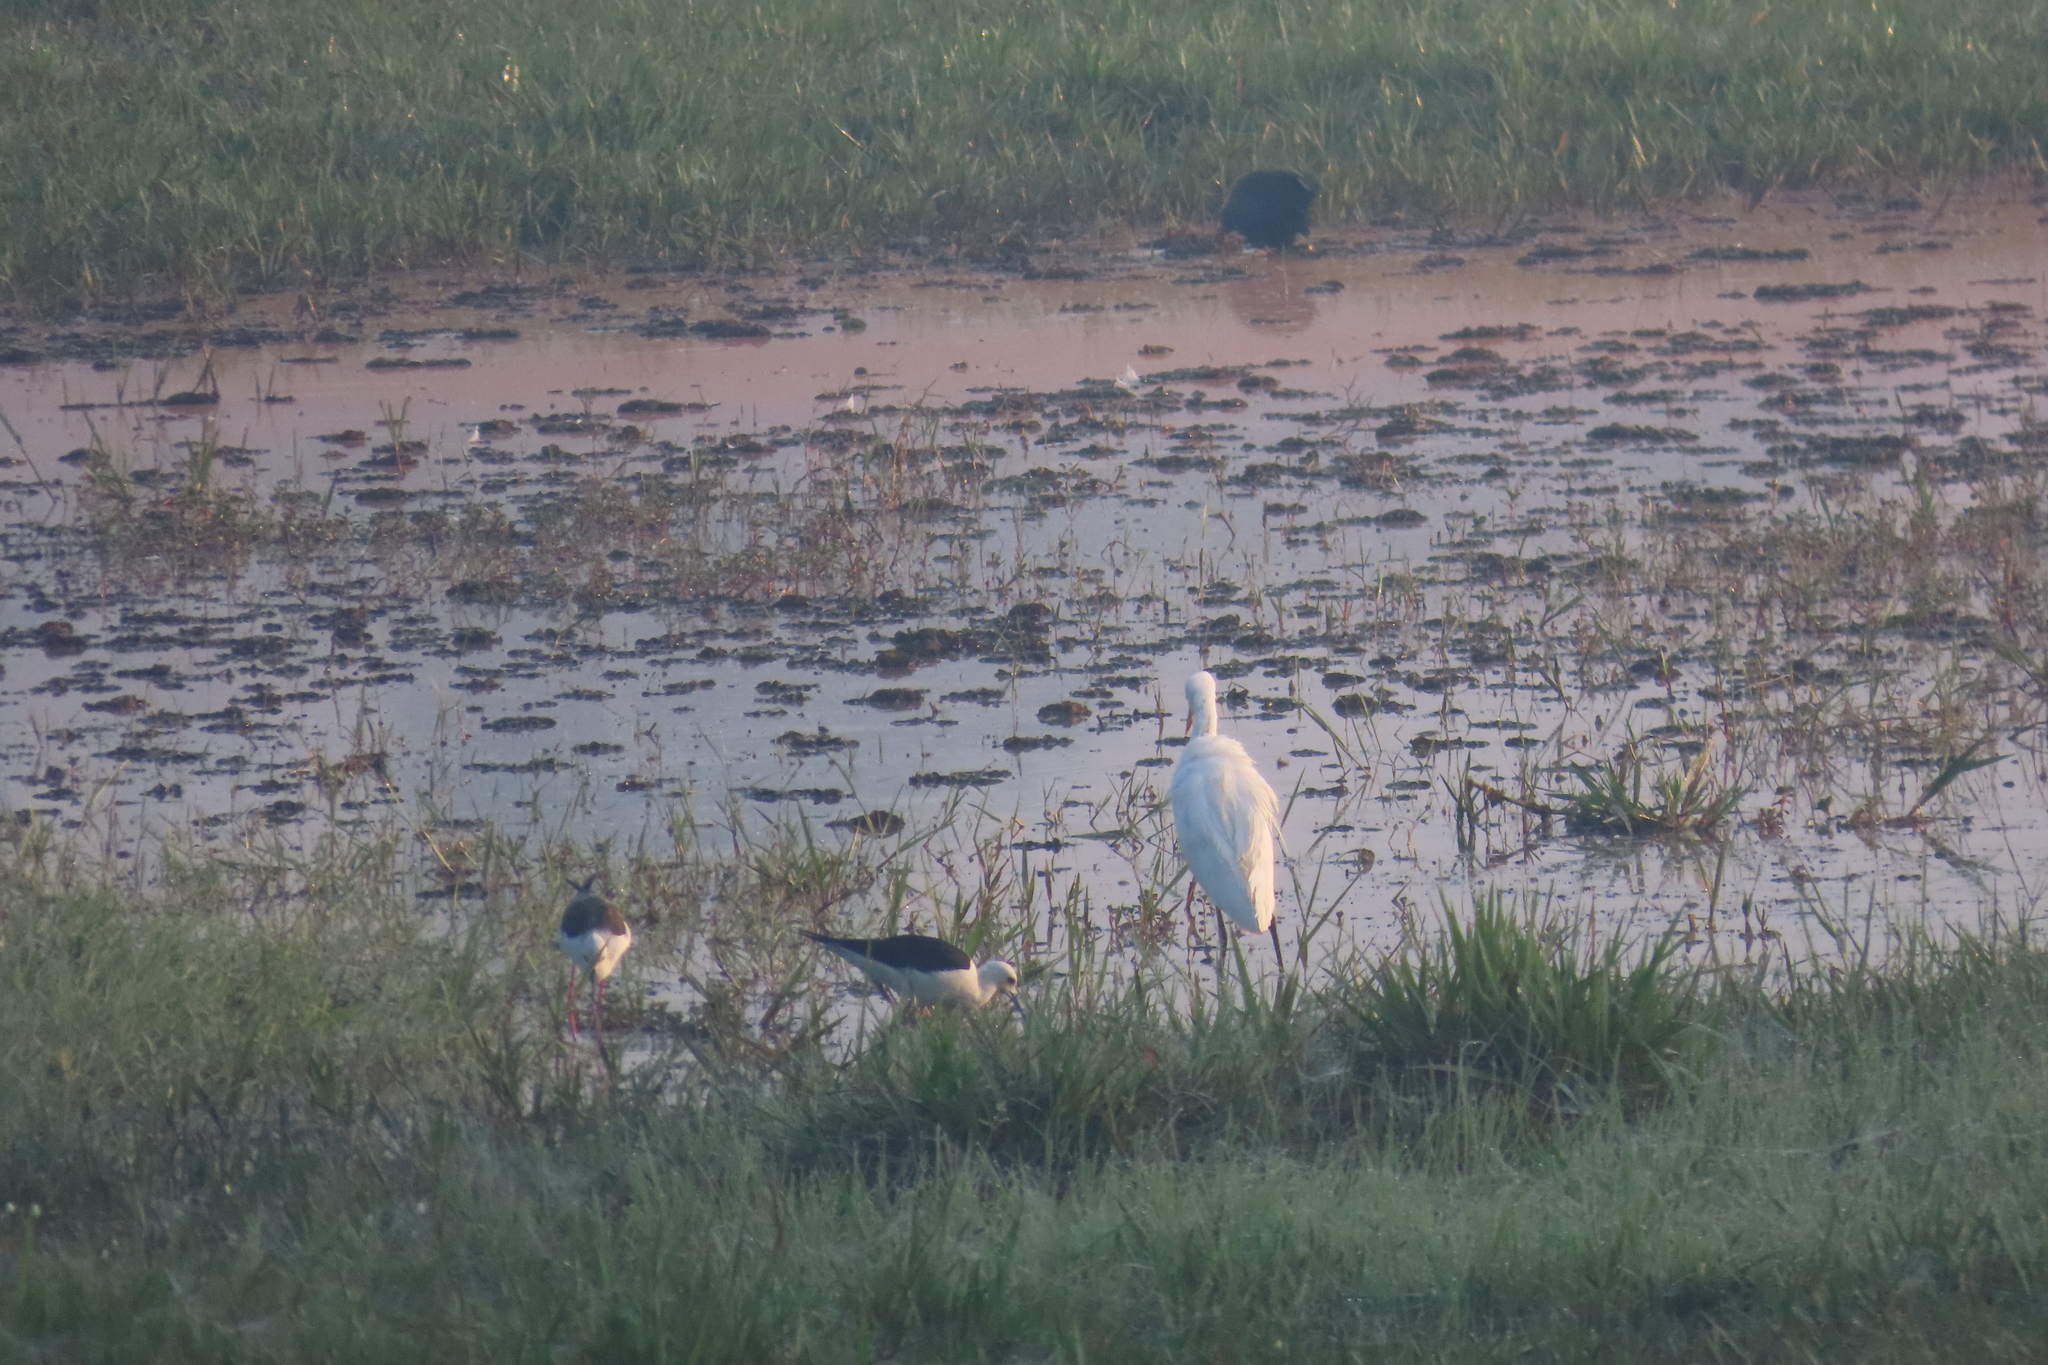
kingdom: Animalia
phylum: Chordata
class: Aves
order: Pelecaniformes
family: Ardeidae
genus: Egretta
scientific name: Egretta intermedia
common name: Intermediate egret
